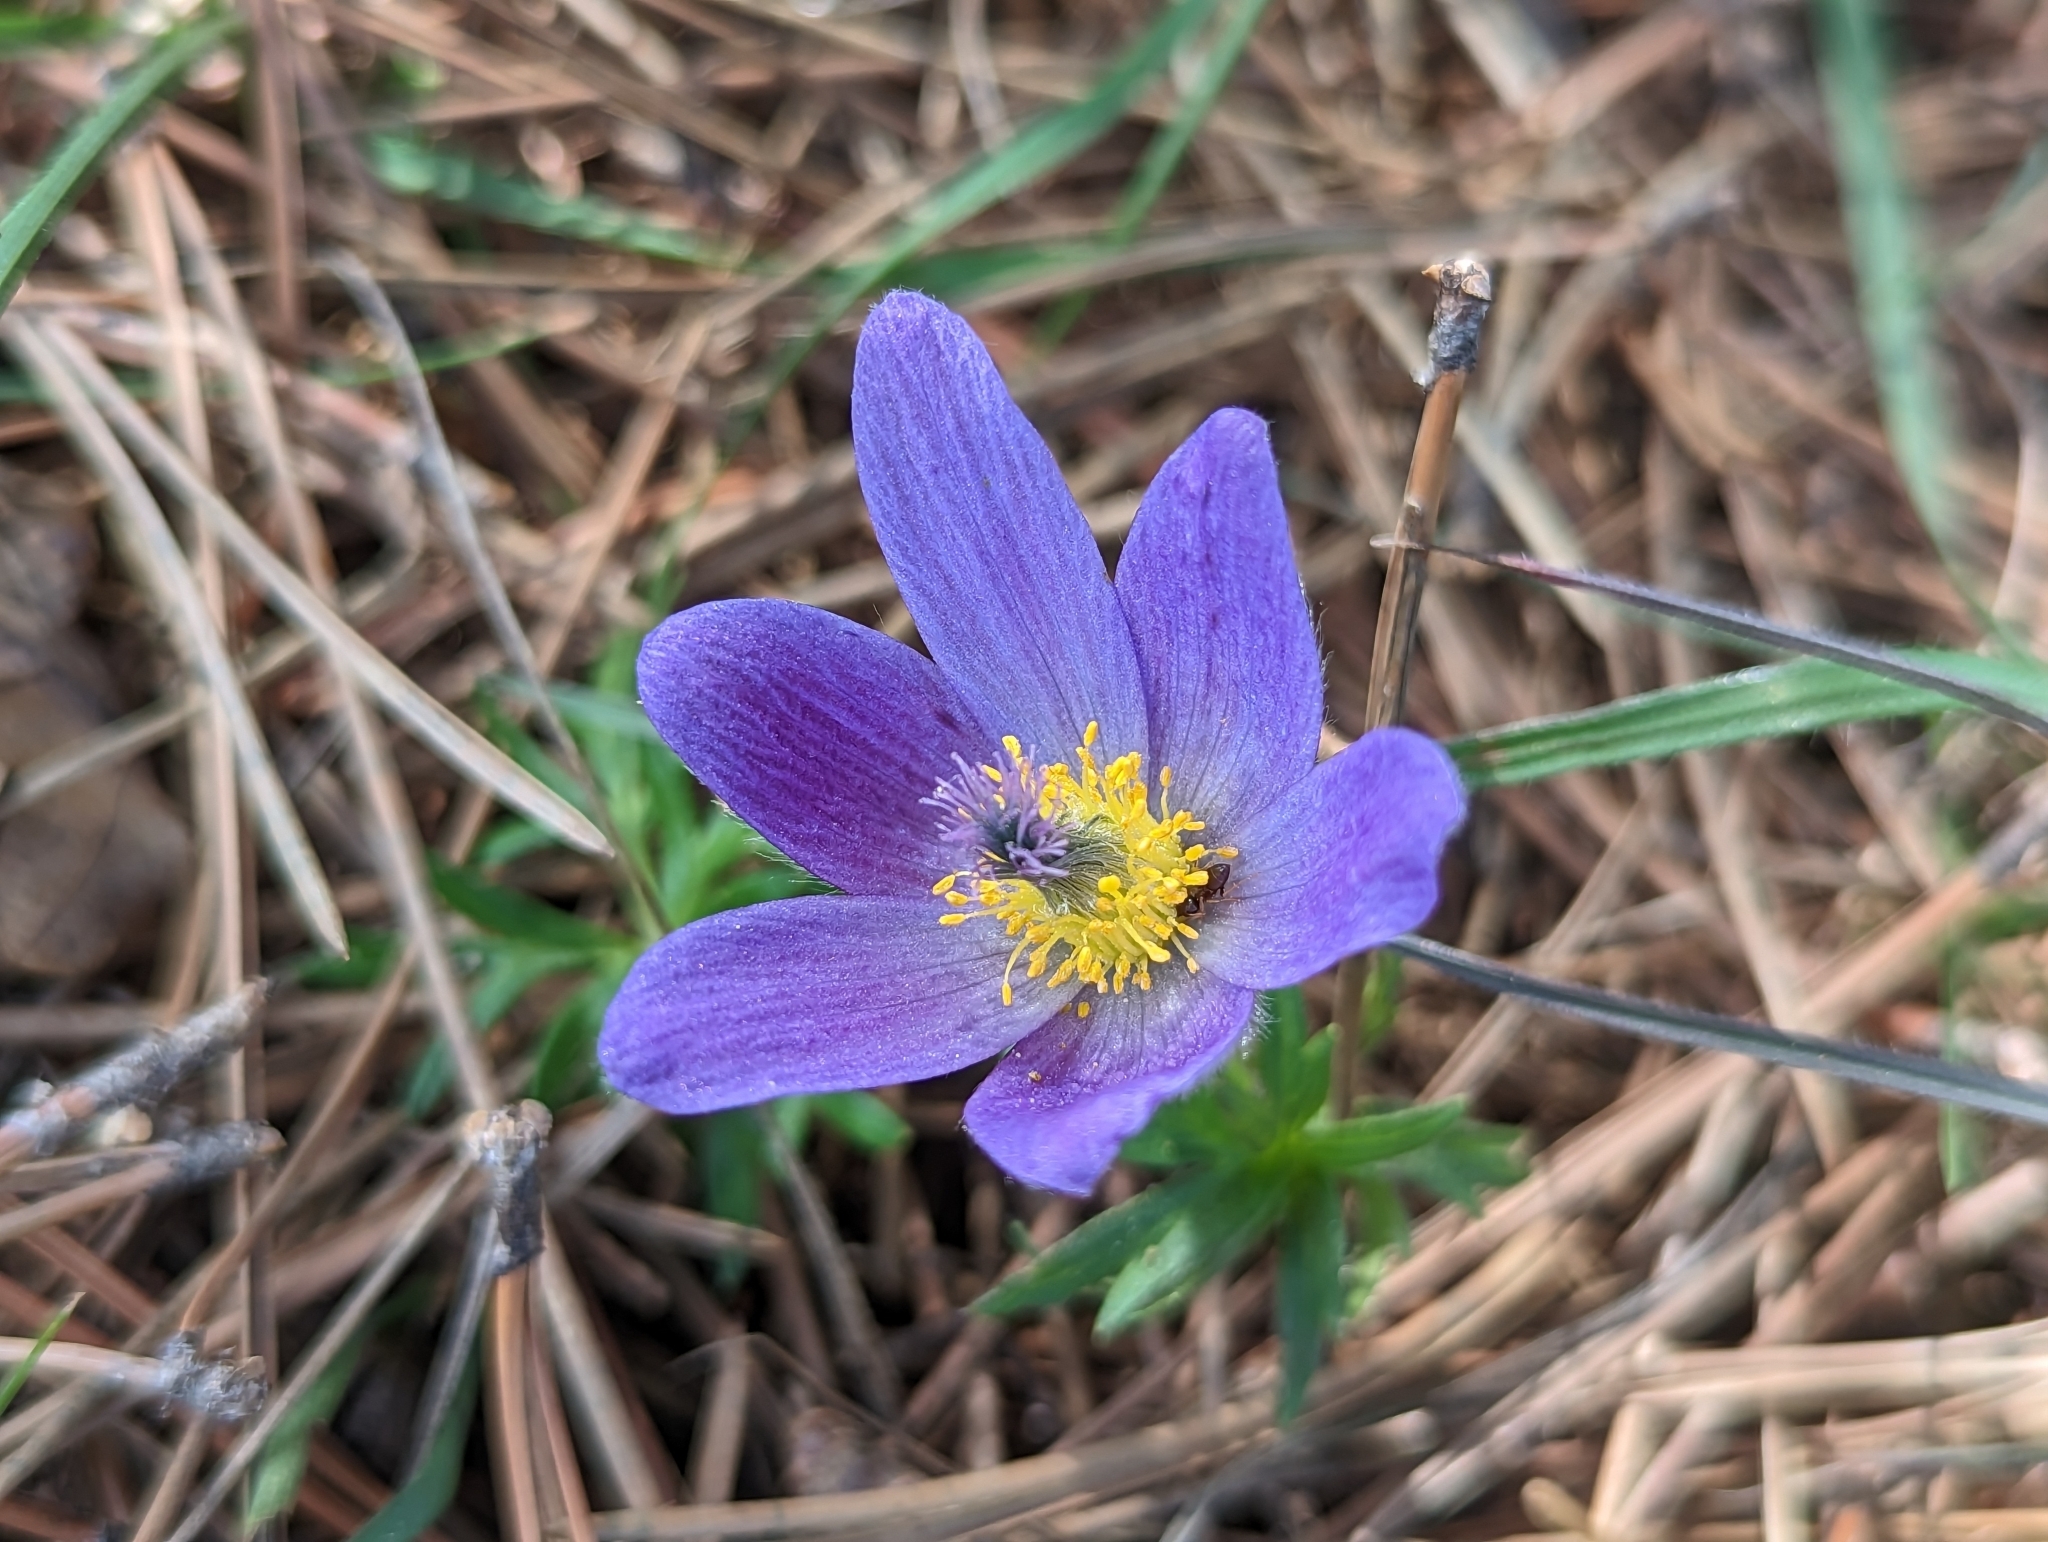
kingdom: Plantae
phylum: Tracheophyta
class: Magnoliopsida
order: Ranunculales
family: Ranunculaceae
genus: Pulsatilla
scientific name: Pulsatilla grandis
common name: Greater pasque flower
